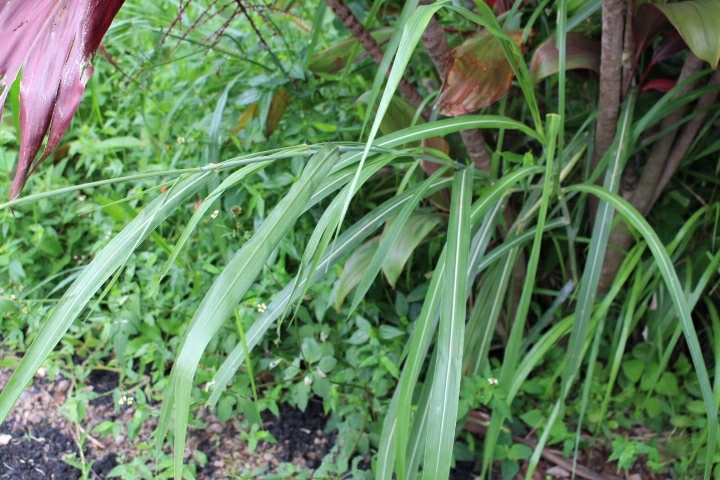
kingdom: Plantae
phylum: Tracheophyta
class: Liliopsida
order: Poales
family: Poaceae
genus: Cenchrus
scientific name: Cenchrus purpureus
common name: Elephant grass
